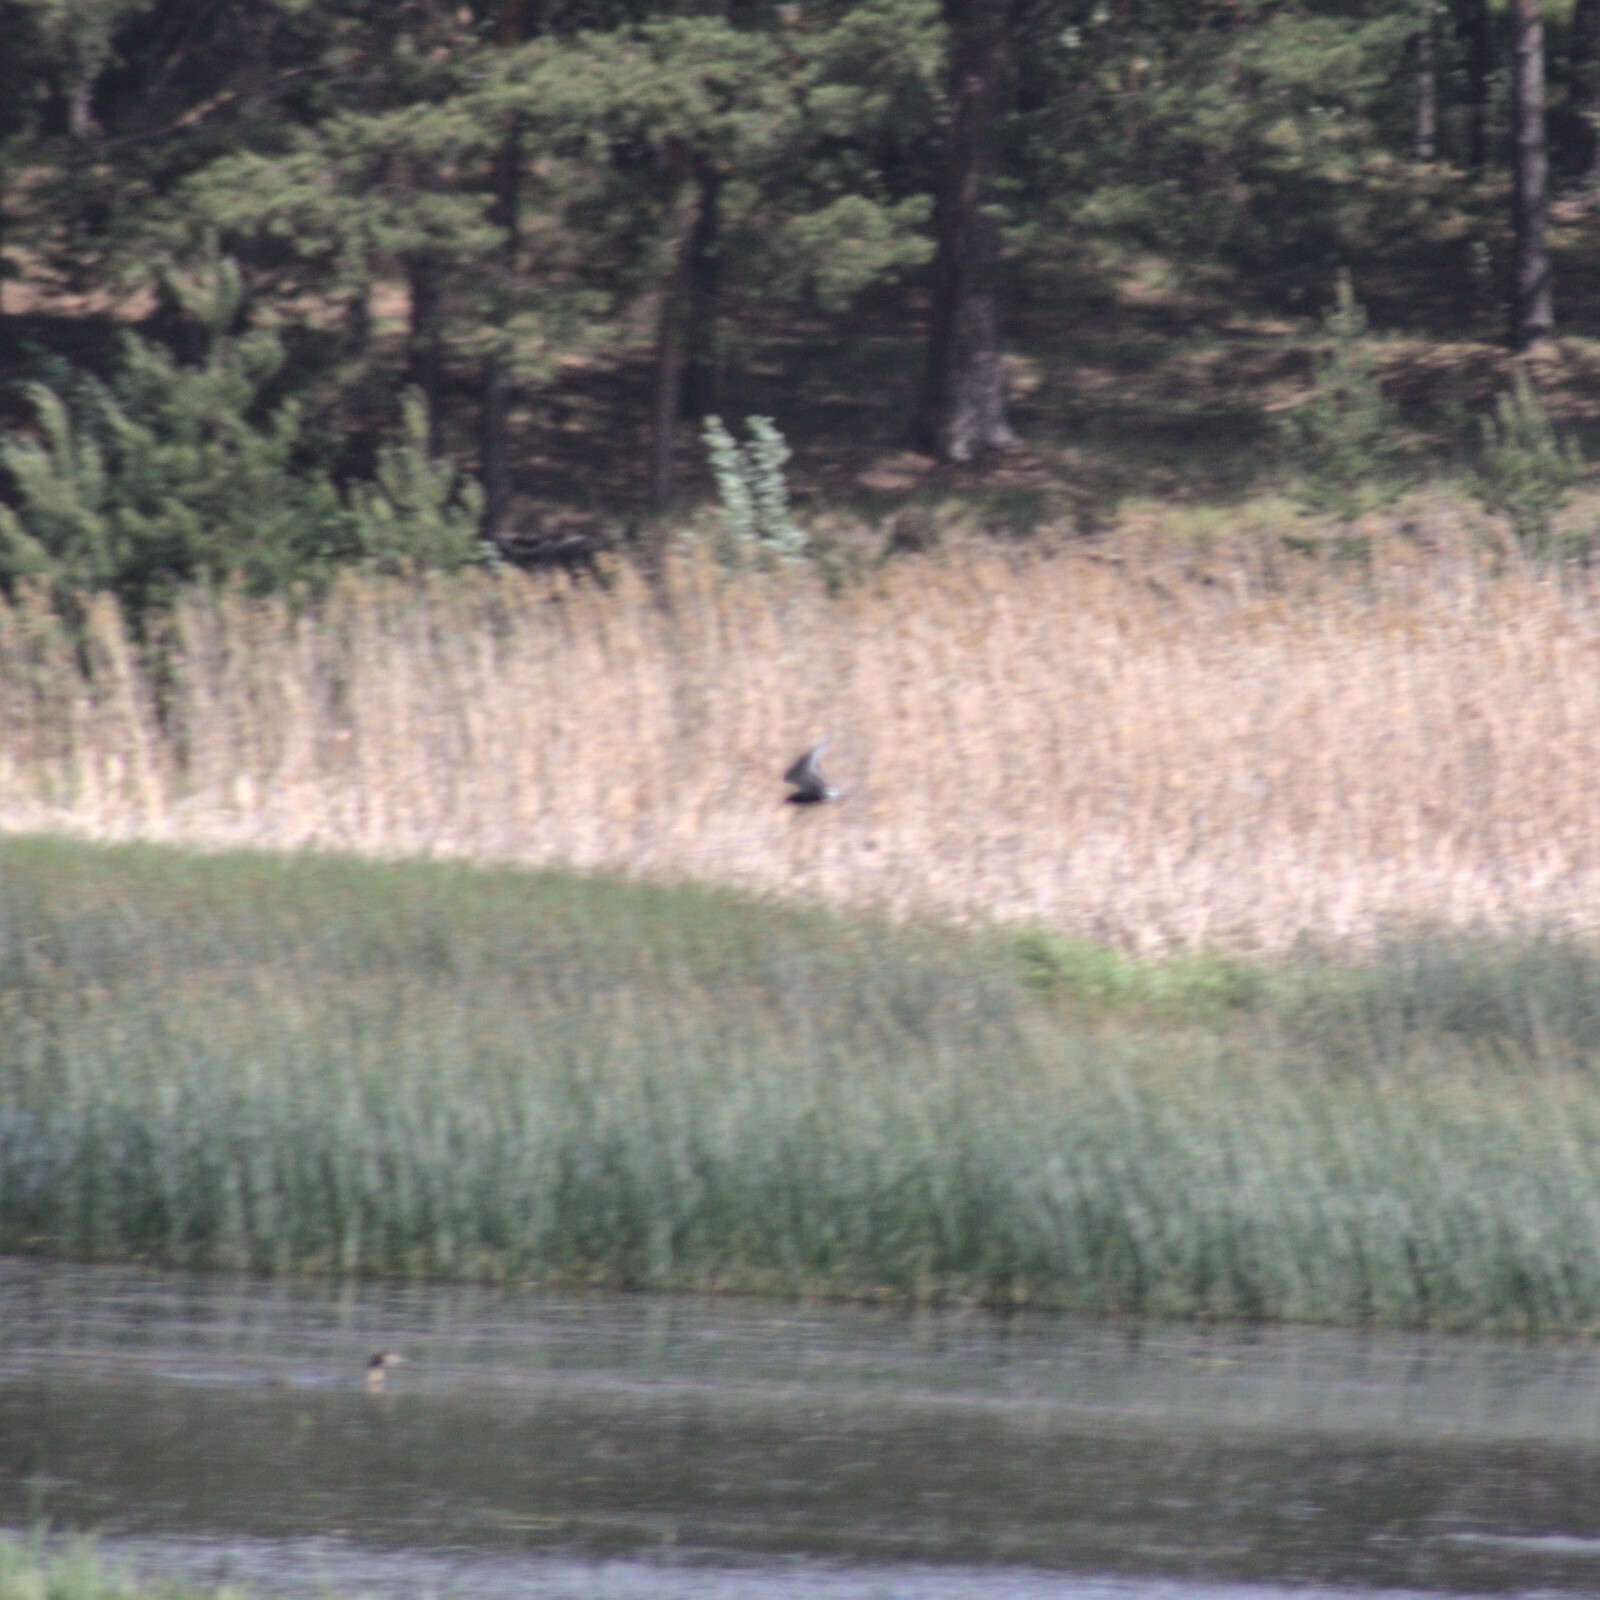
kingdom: Animalia
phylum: Chordata
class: Aves
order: Charadriiformes
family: Laridae
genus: Chlidonias
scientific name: Chlidonias niger
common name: Black tern
